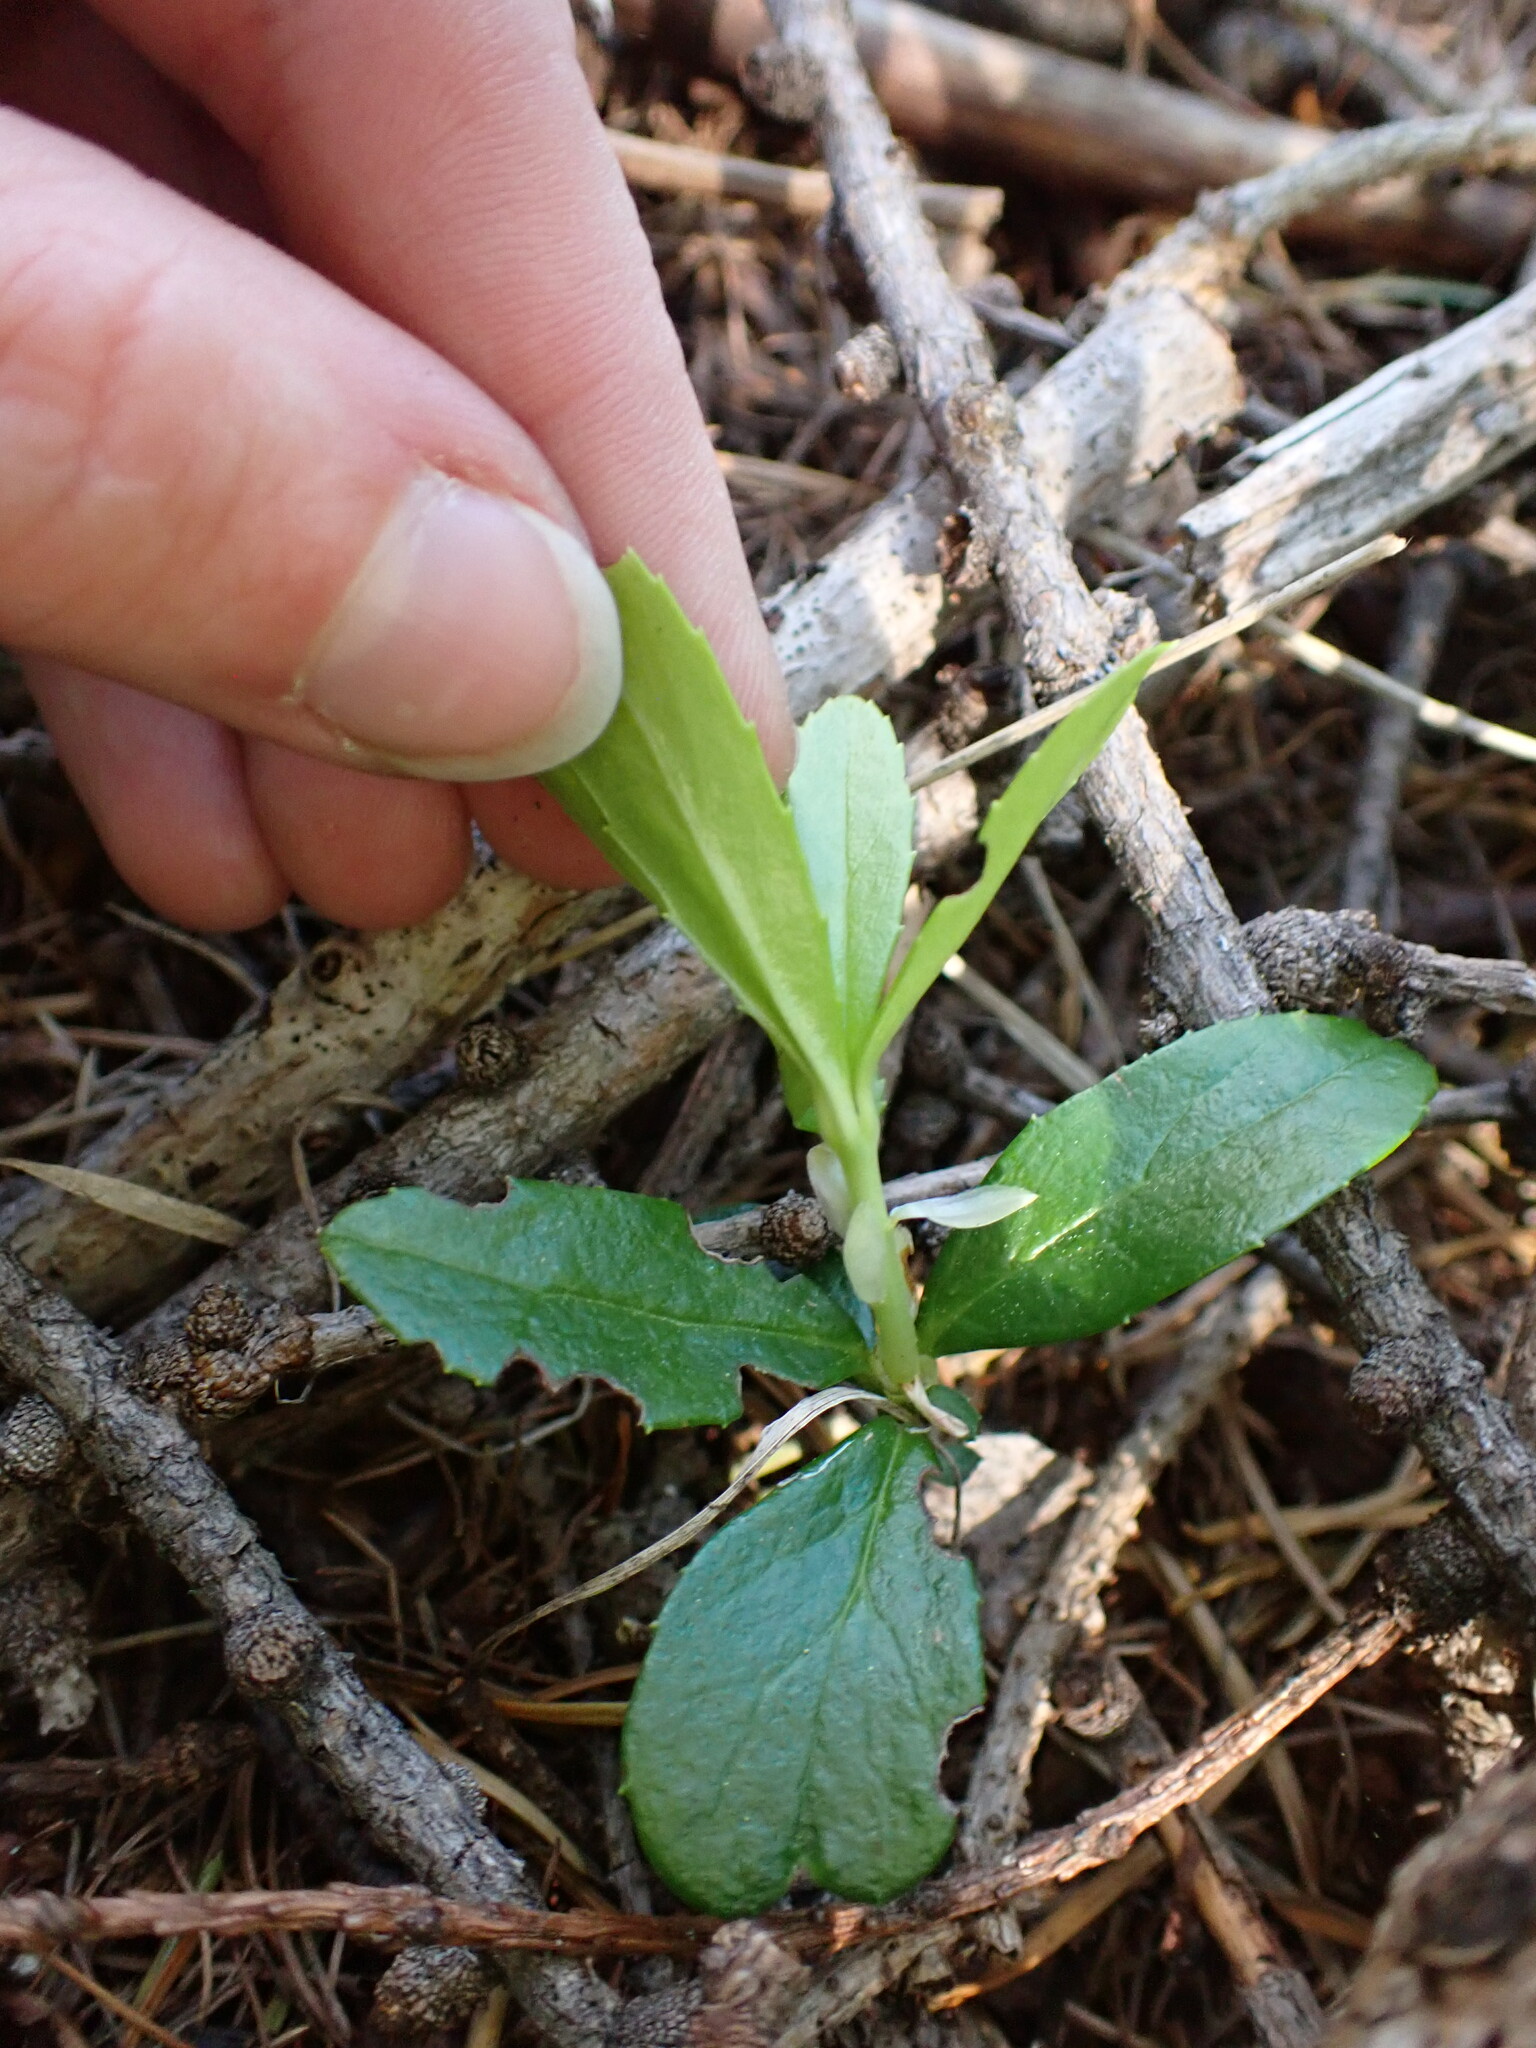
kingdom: Plantae
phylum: Tracheophyta
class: Magnoliopsida
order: Ericales
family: Ericaceae
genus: Chimaphila
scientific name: Chimaphila umbellata
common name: Pipsissewa
